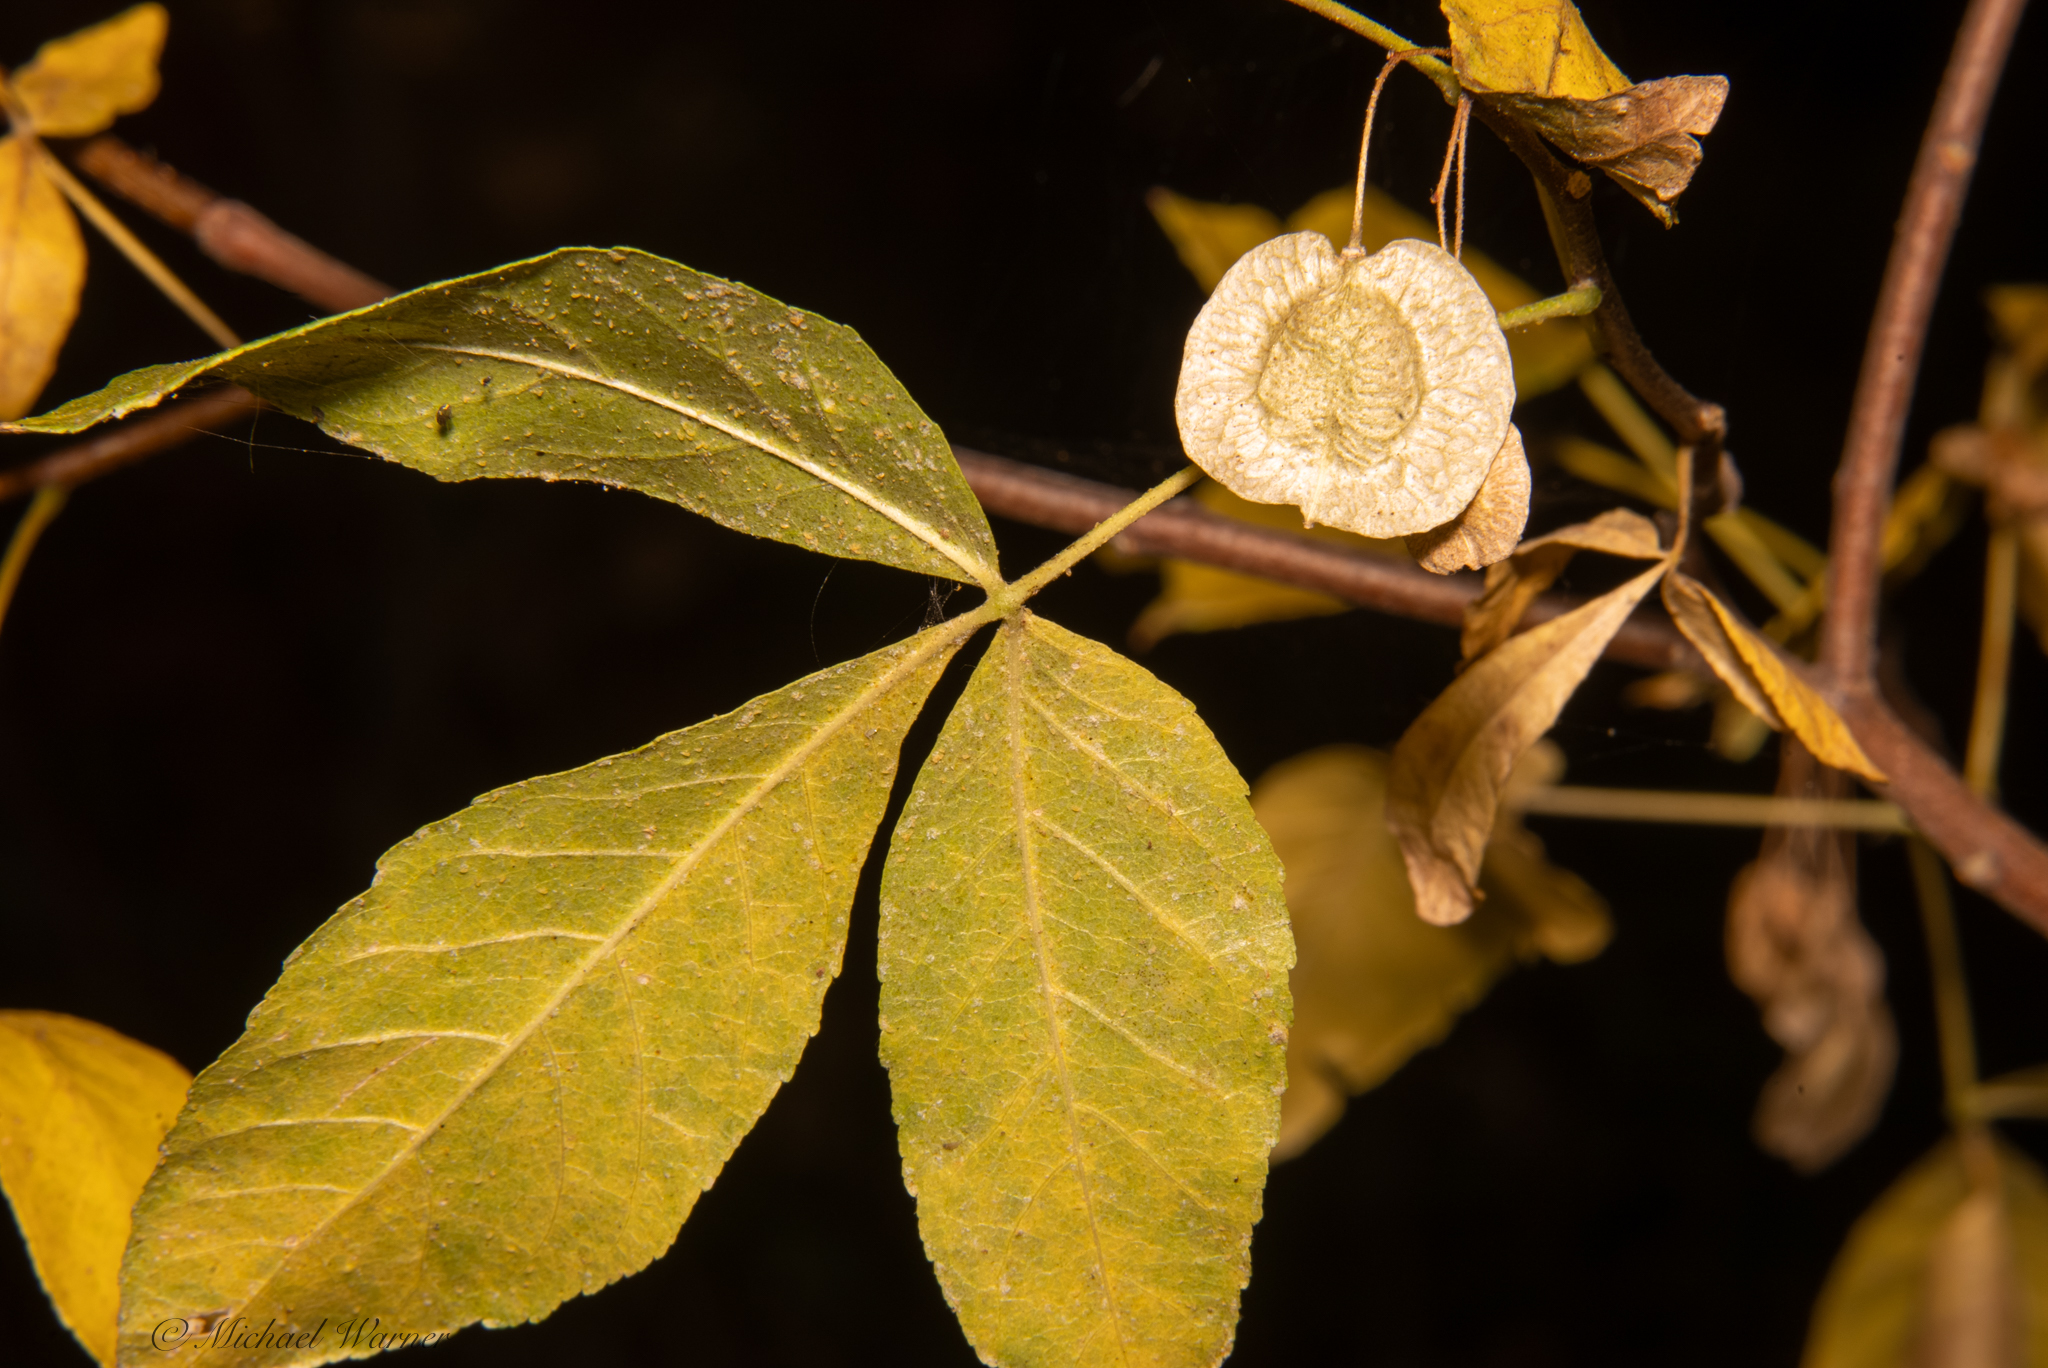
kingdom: Plantae
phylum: Tracheophyta
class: Magnoliopsida
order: Sapindales
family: Rutaceae
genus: Ptelea
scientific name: Ptelea crenulata
